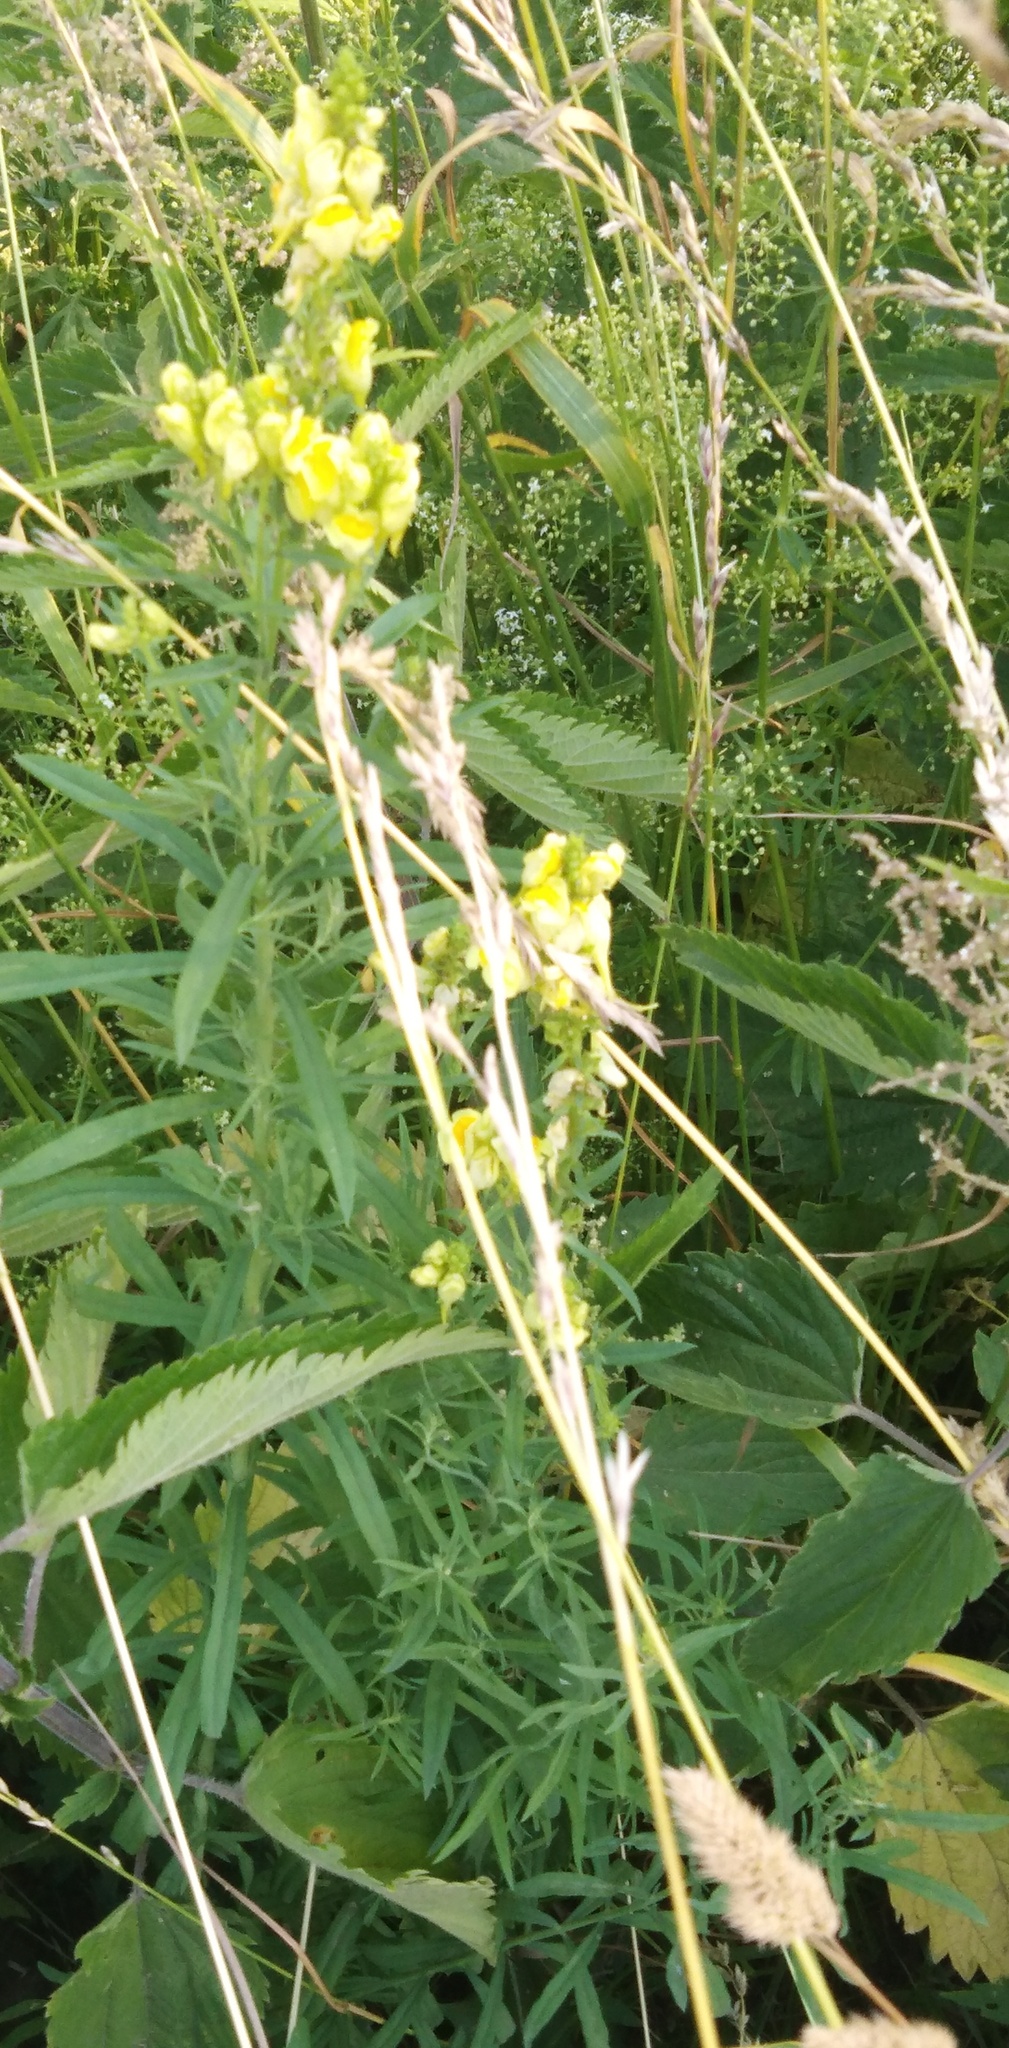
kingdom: Plantae
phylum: Tracheophyta
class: Magnoliopsida
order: Lamiales
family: Plantaginaceae
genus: Linaria
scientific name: Linaria vulgaris
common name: Butter and eggs
